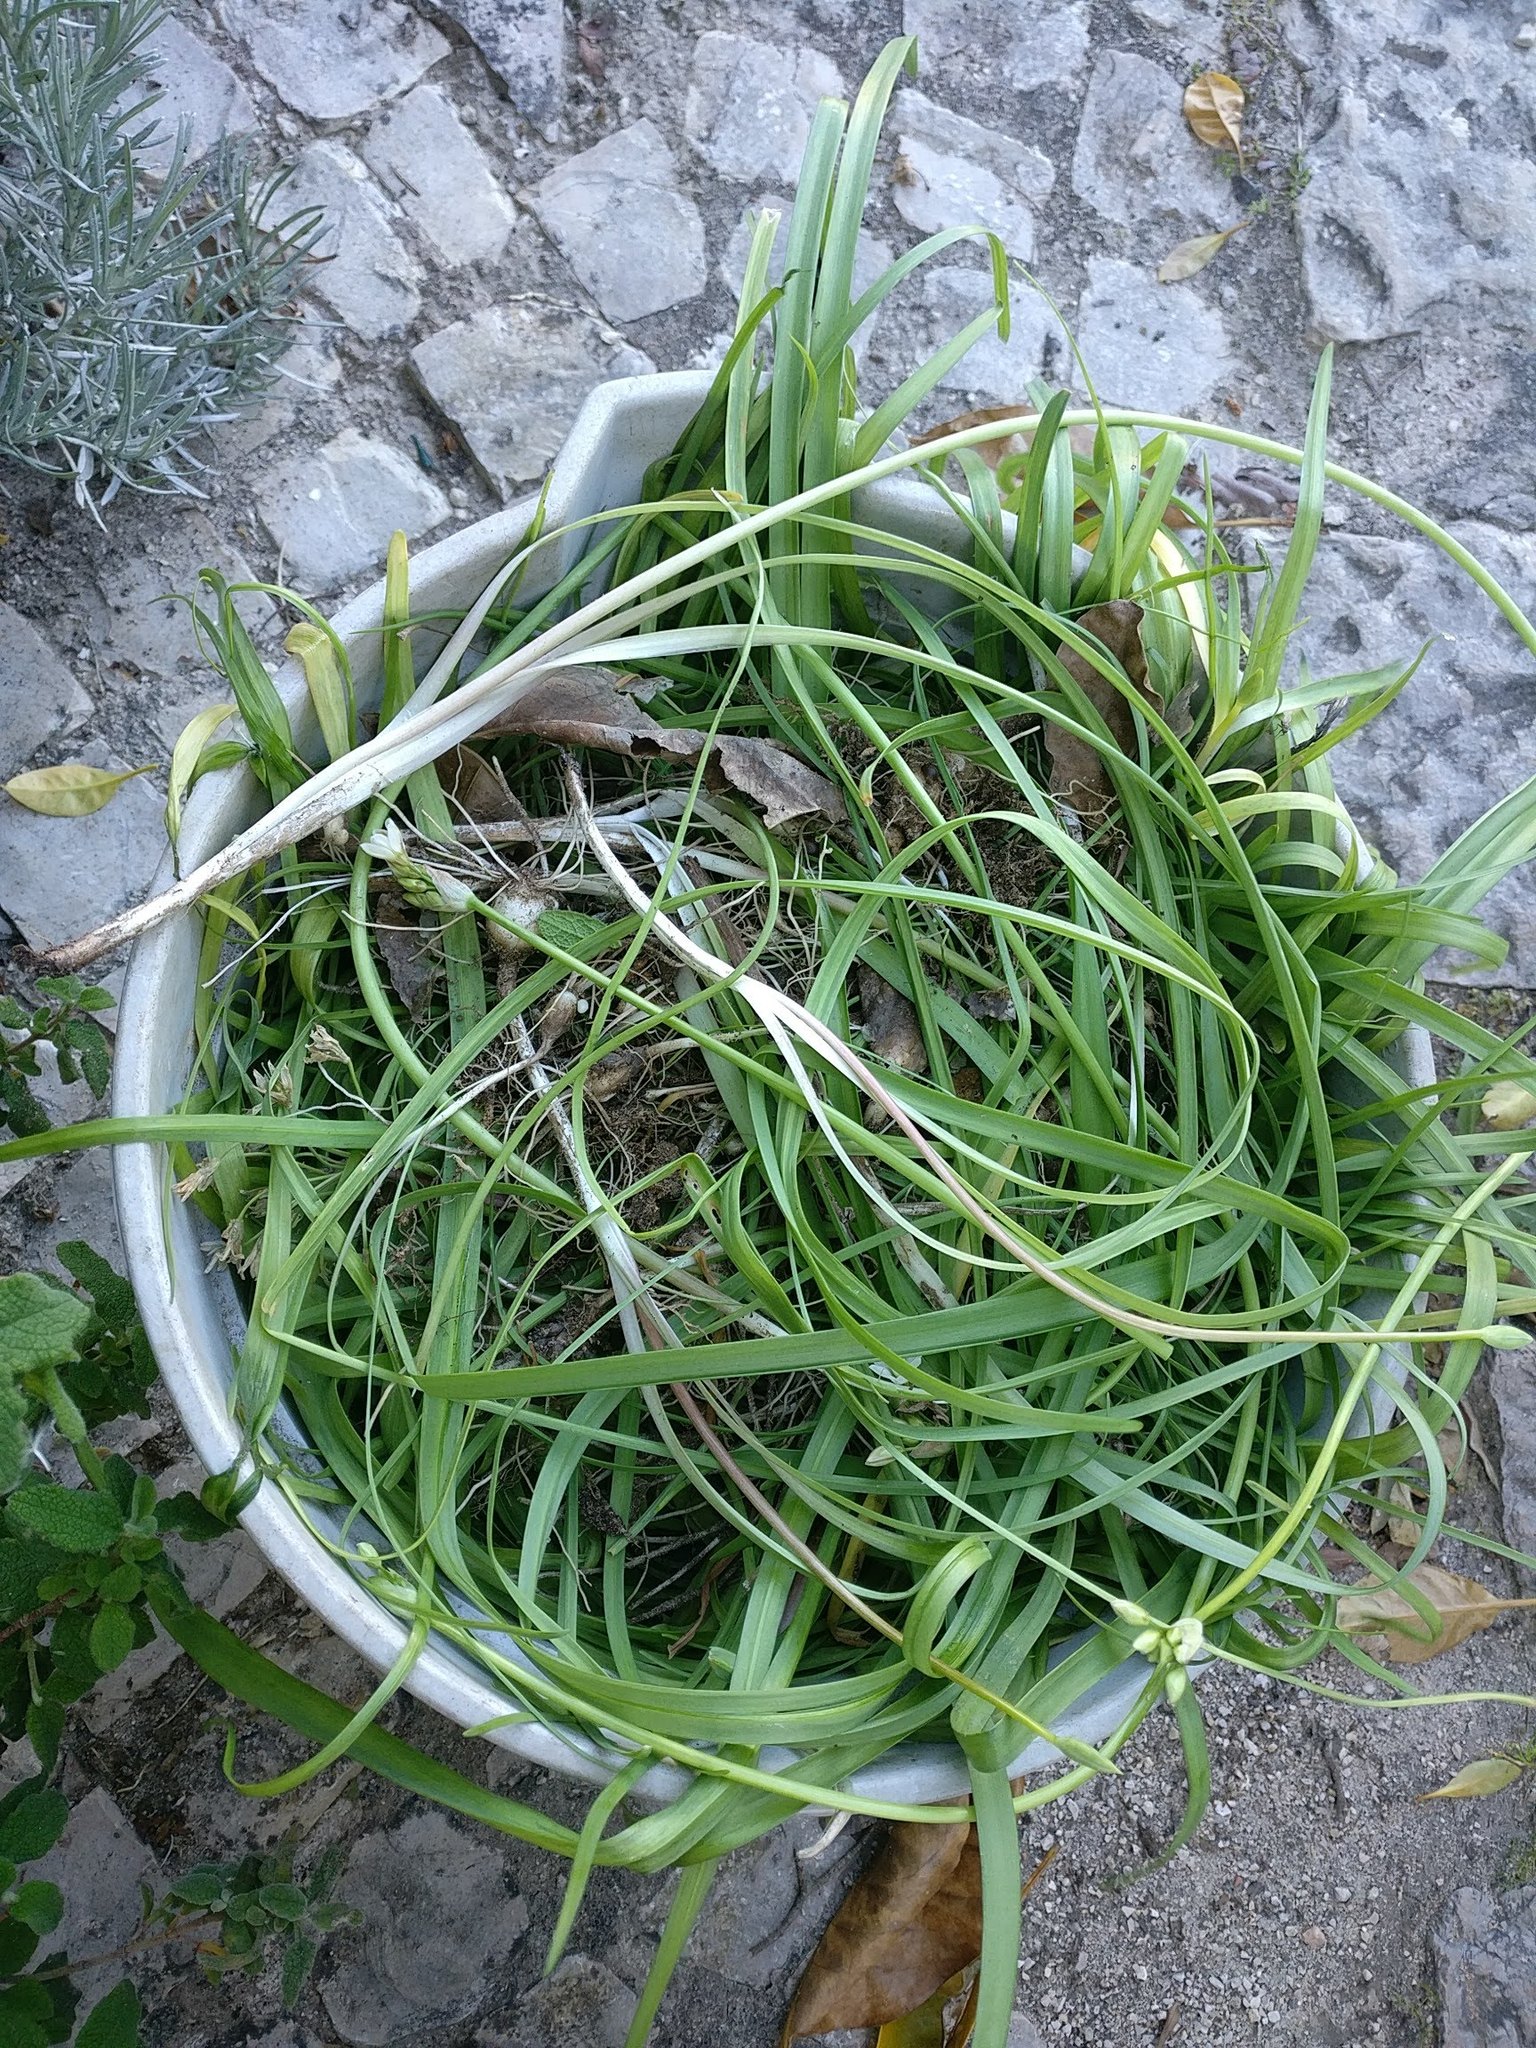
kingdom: Plantae
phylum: Tracheophyta
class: Liliopsida
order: Asparagales
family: Amaryllidaceae
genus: Nothoscordum
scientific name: Nothoscordum gracile
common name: Slender false garlic
